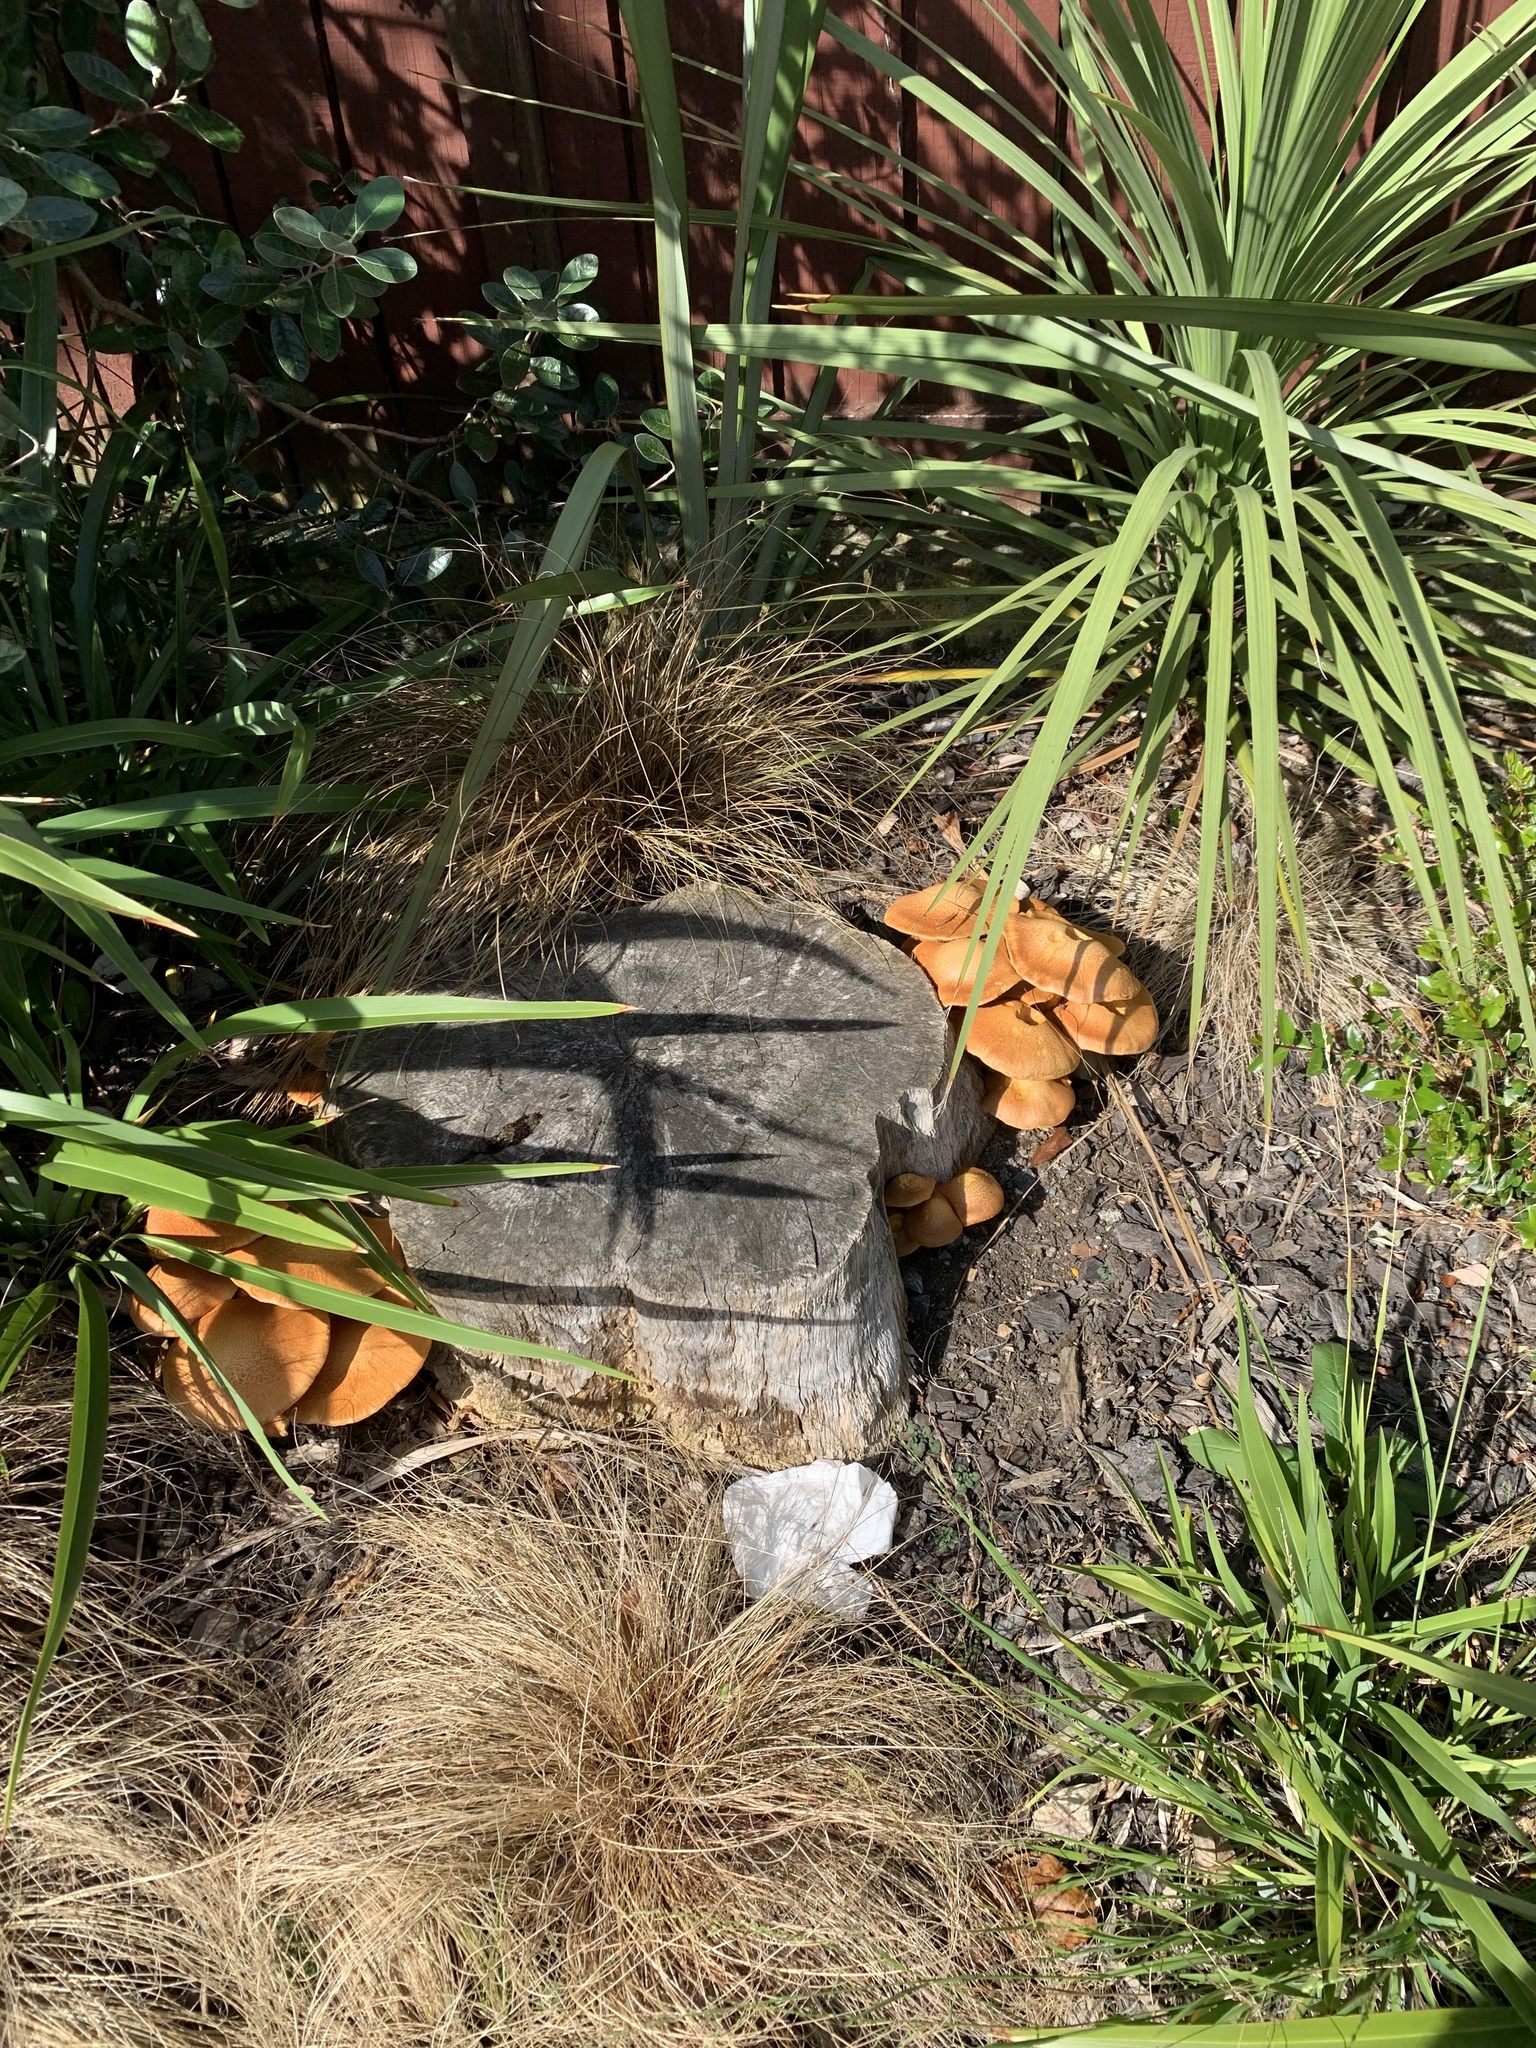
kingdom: Fungi
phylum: Basidiomycota
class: Agaricomycetes
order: Agaricales
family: Hymenogastraceae
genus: Gymnopilus
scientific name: Gymnopilus junonius
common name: Spectacular rustgill
